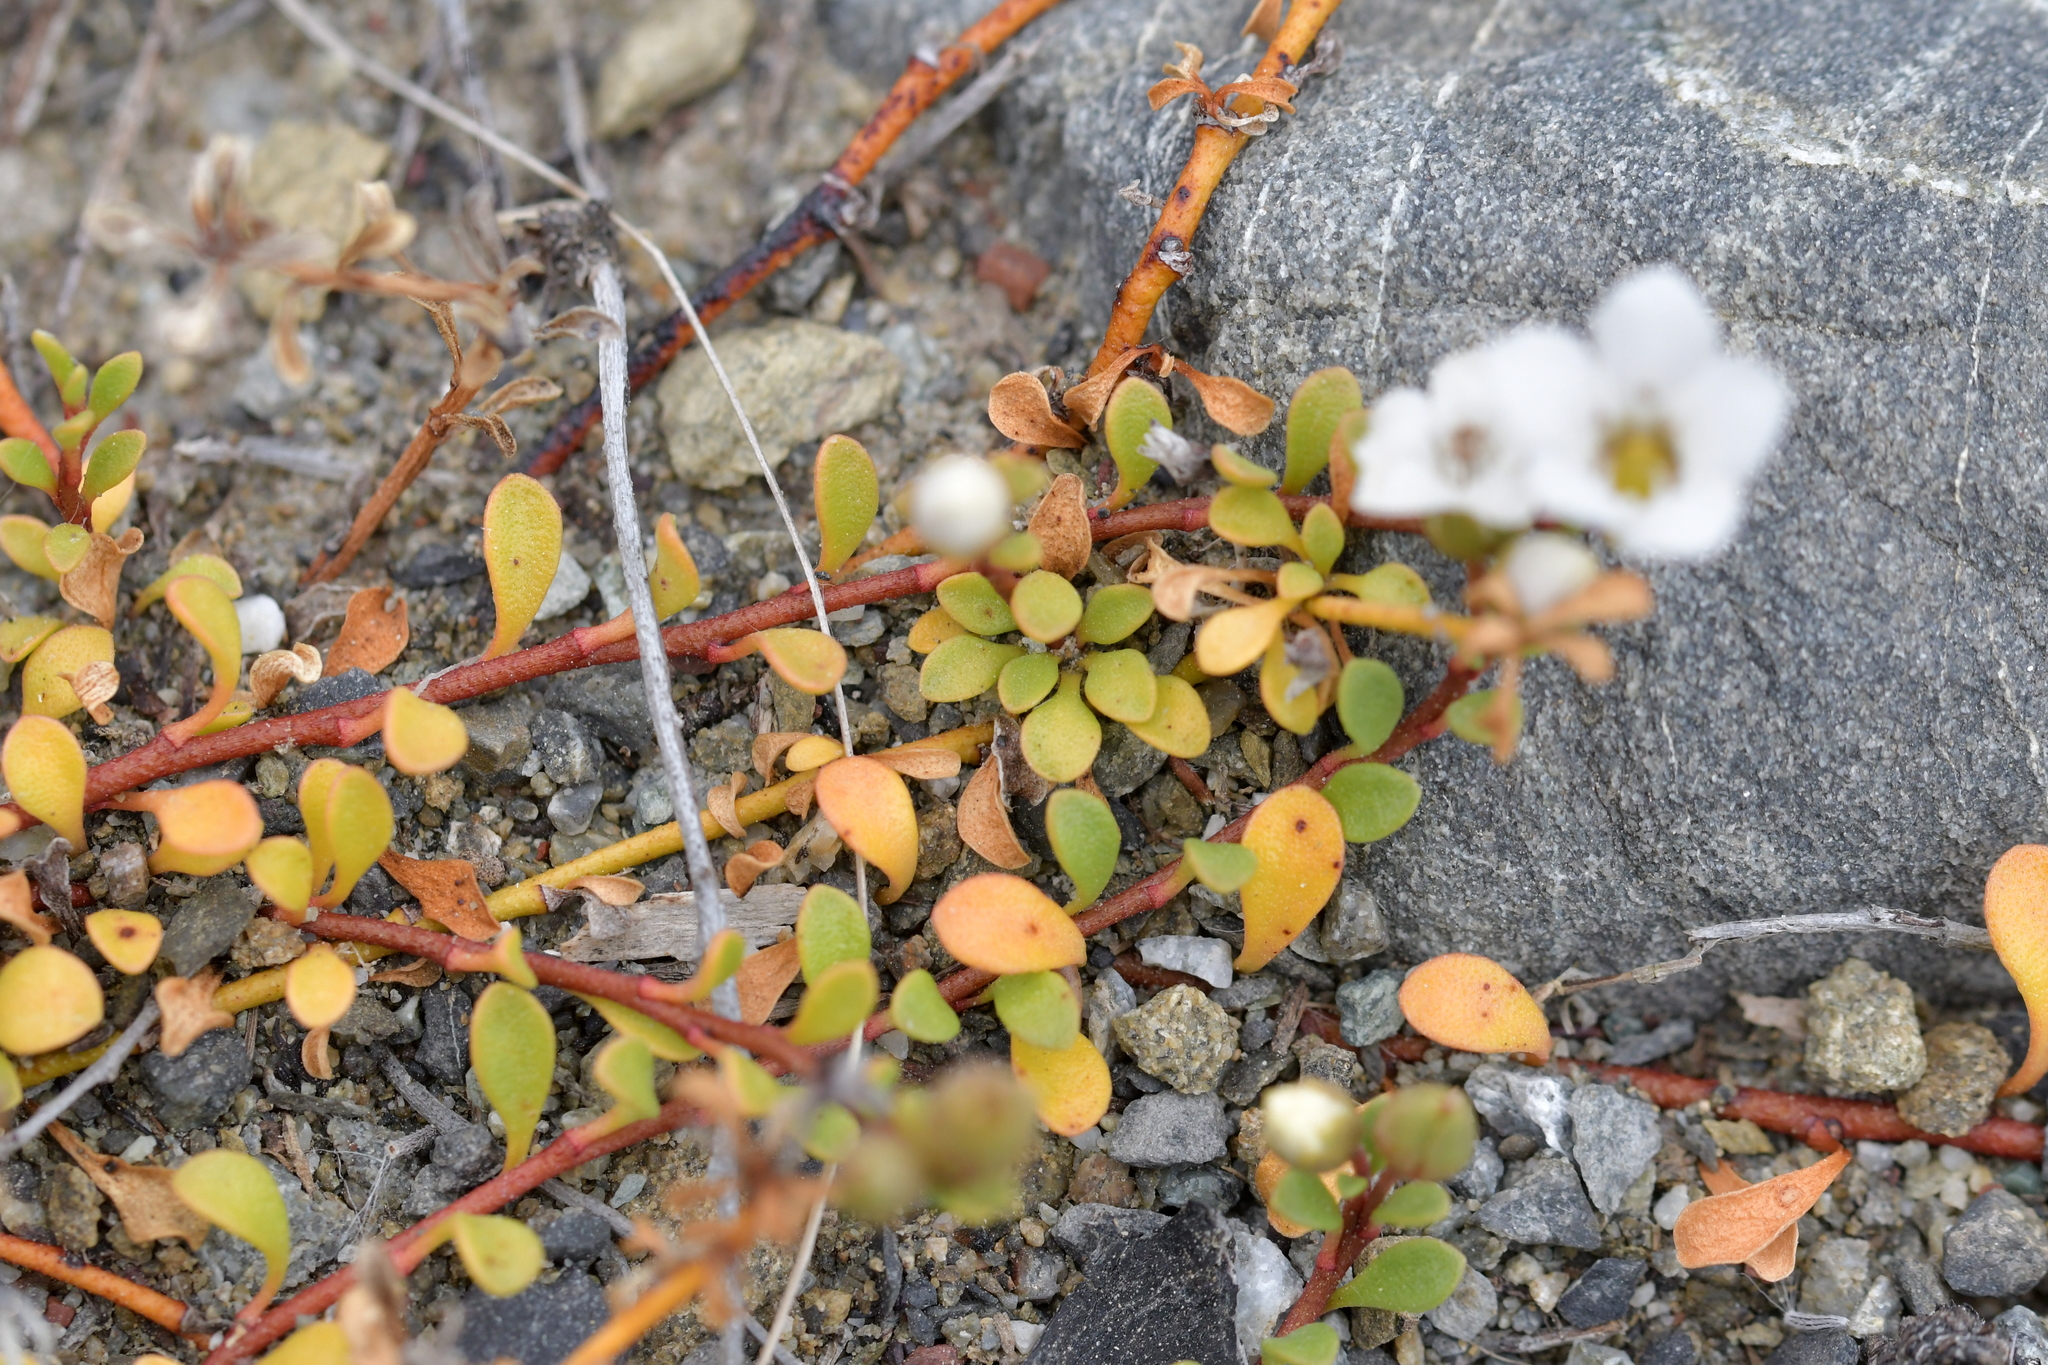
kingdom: Plantae
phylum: Tracheophyta
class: Magnoliopsida
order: Ericales
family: Primulaceae
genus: Samolus
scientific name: Samolus repens
